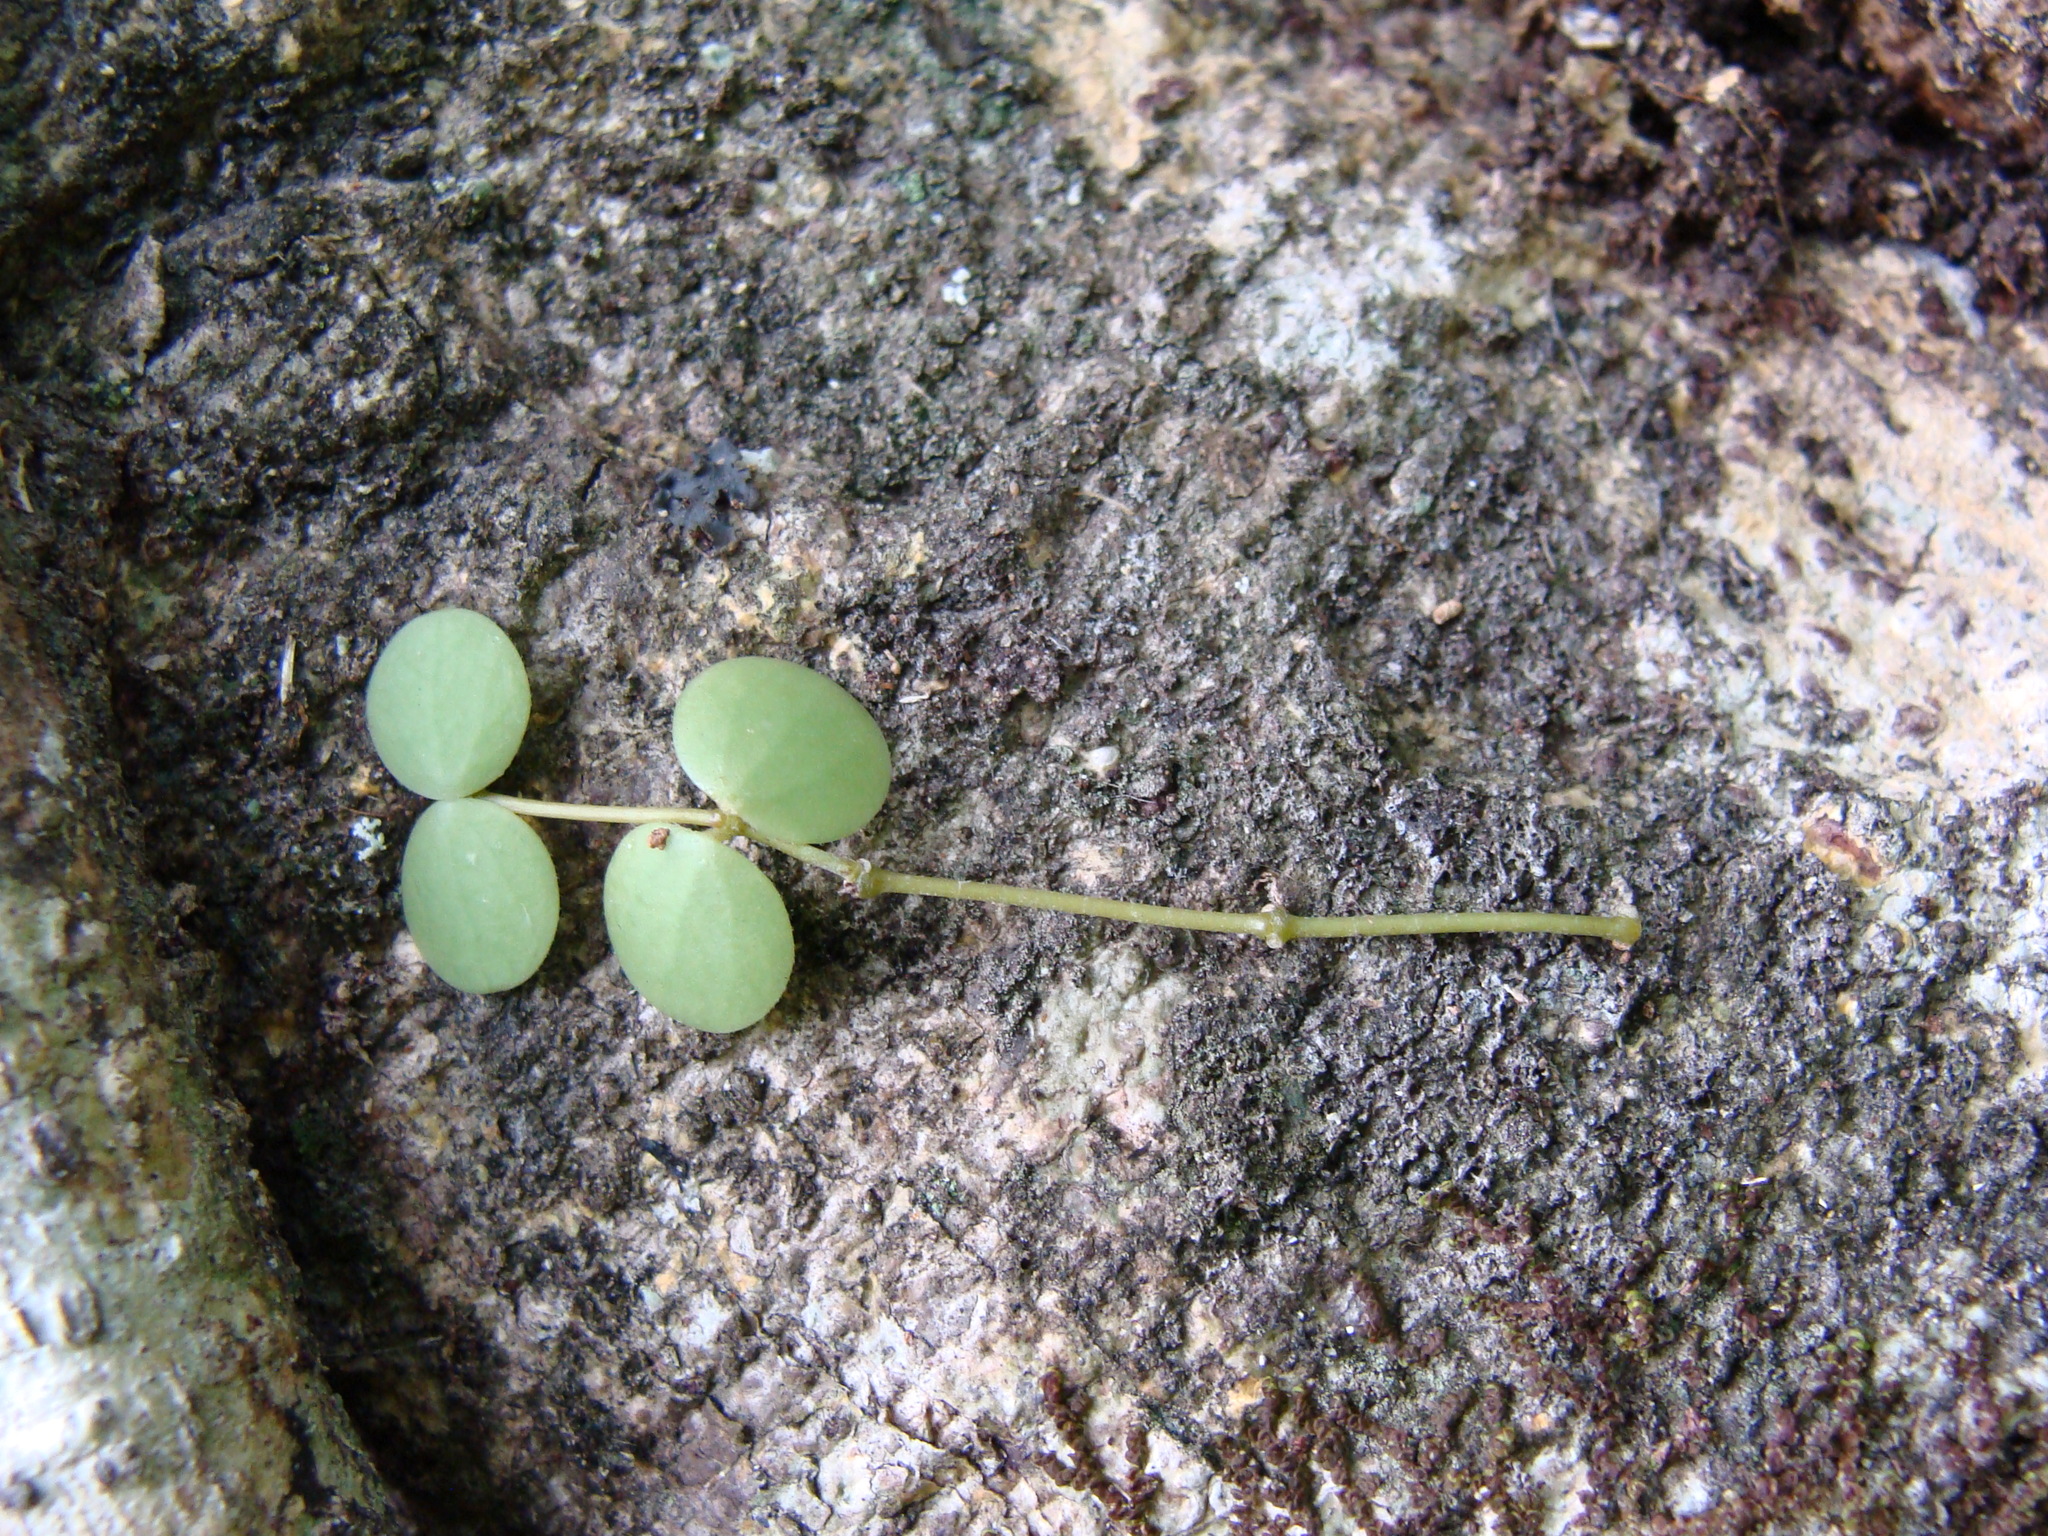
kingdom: Plantae
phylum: Tracheophyta
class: Magnoliopsida
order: Piperales
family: Piperaceae
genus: Peperomia
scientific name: Peperomia cyclophylla
